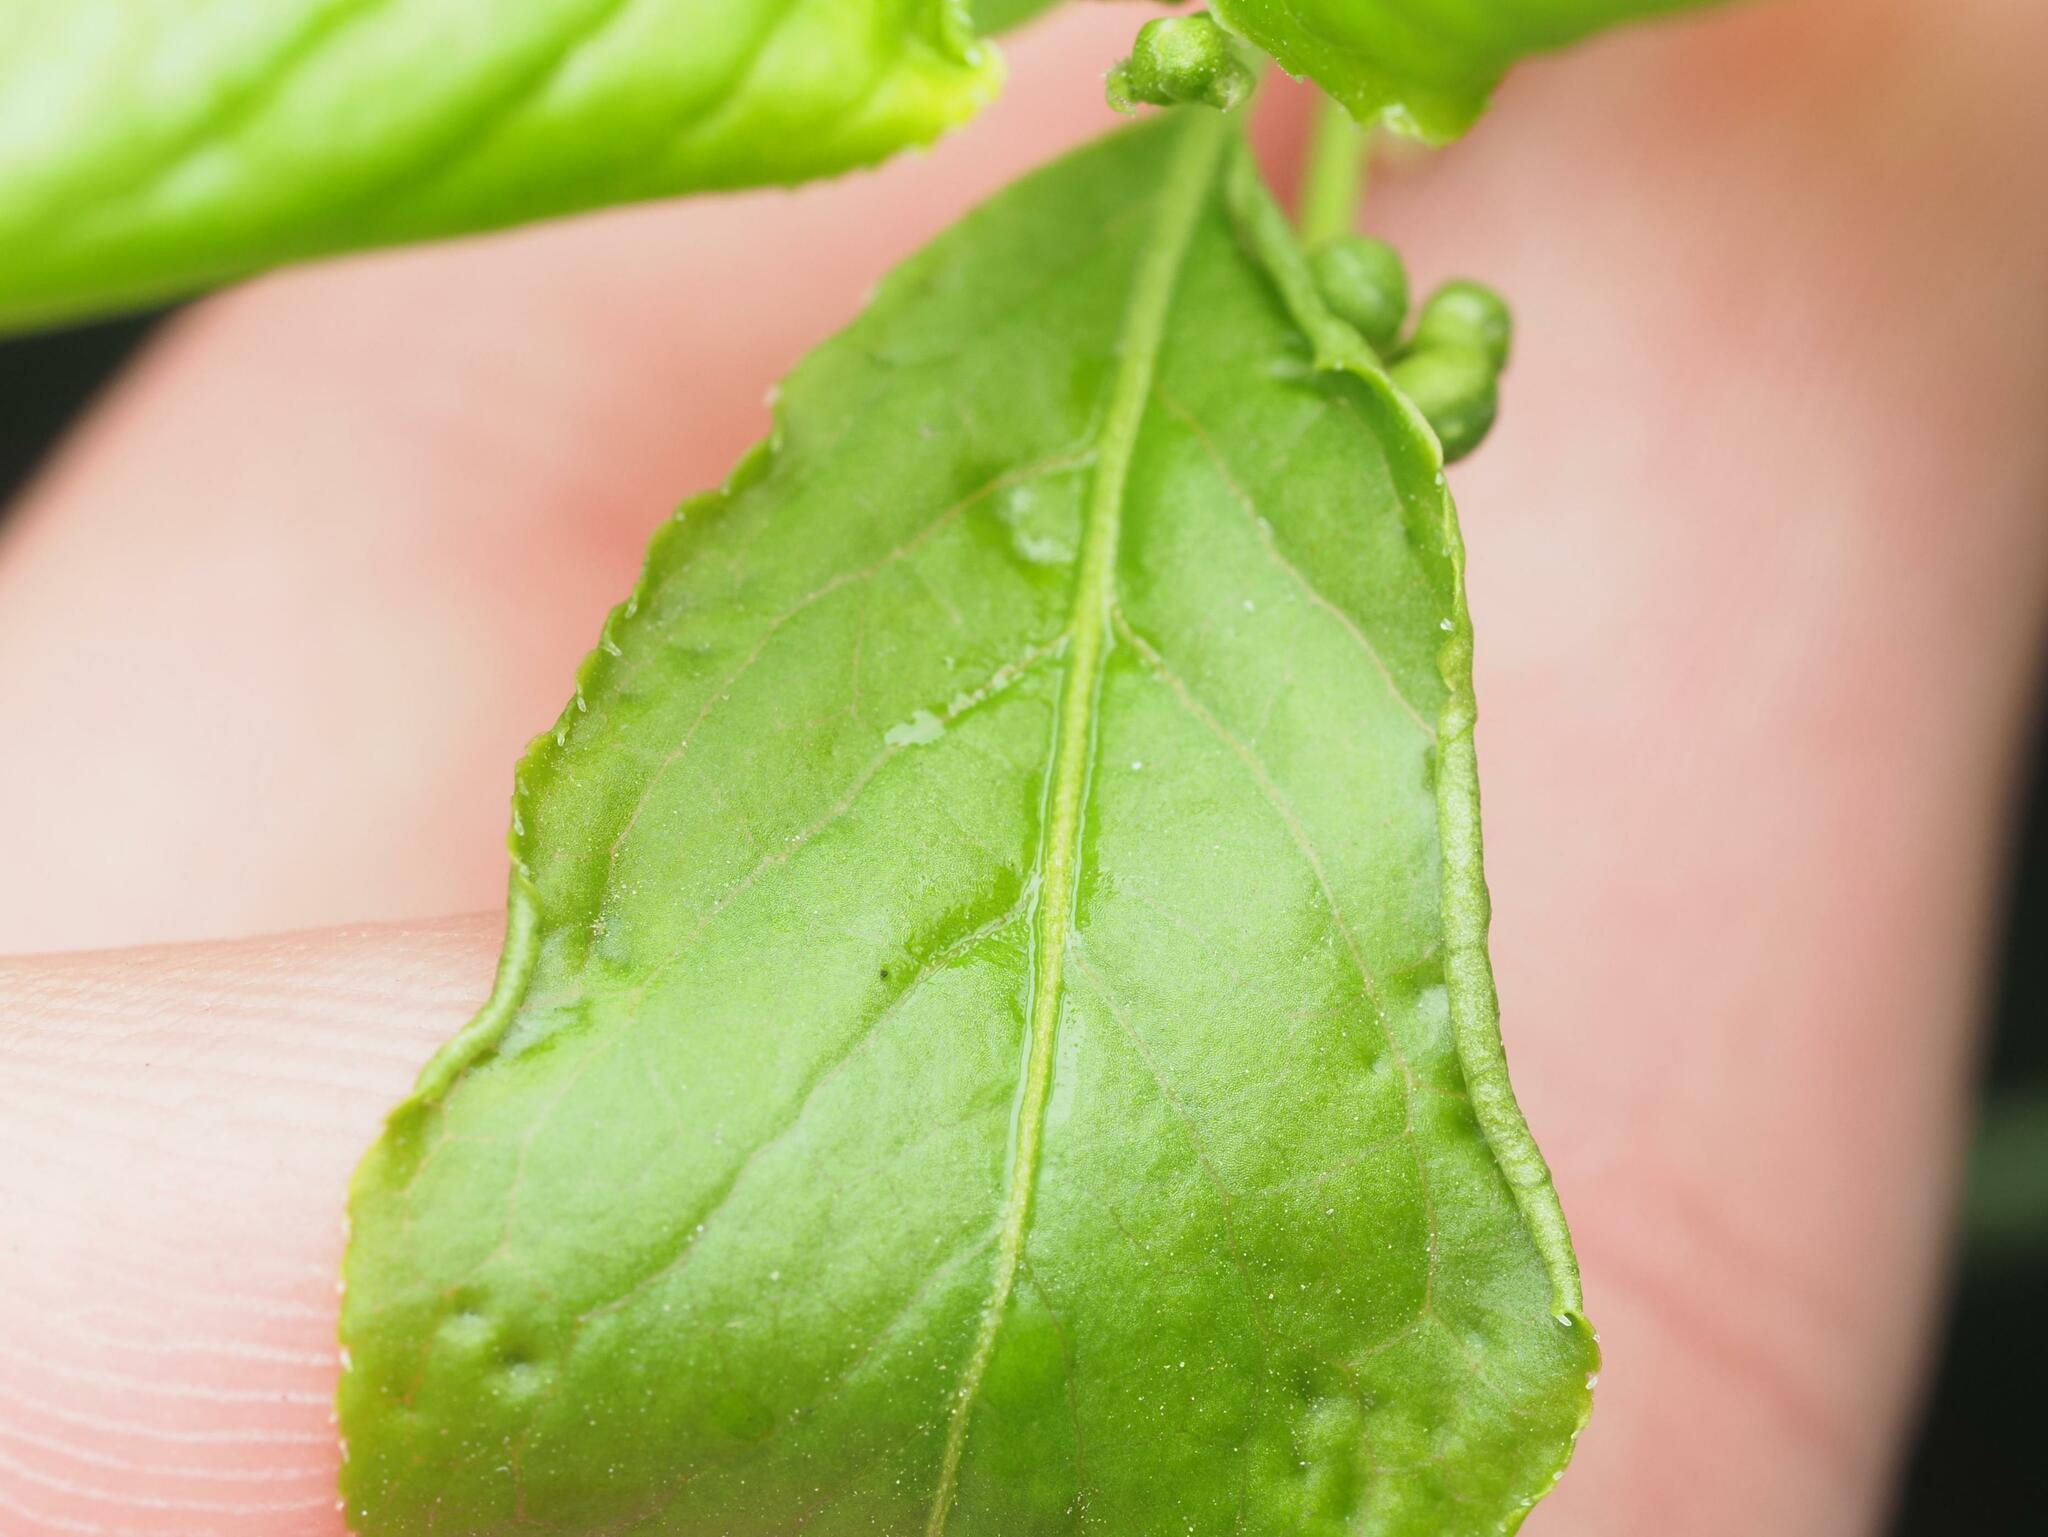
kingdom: Animalia
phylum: Arthropoda
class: Arachnida
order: Trombidiformes
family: Eriophyidae
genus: Stenacis
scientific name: Stenacis evonymi
